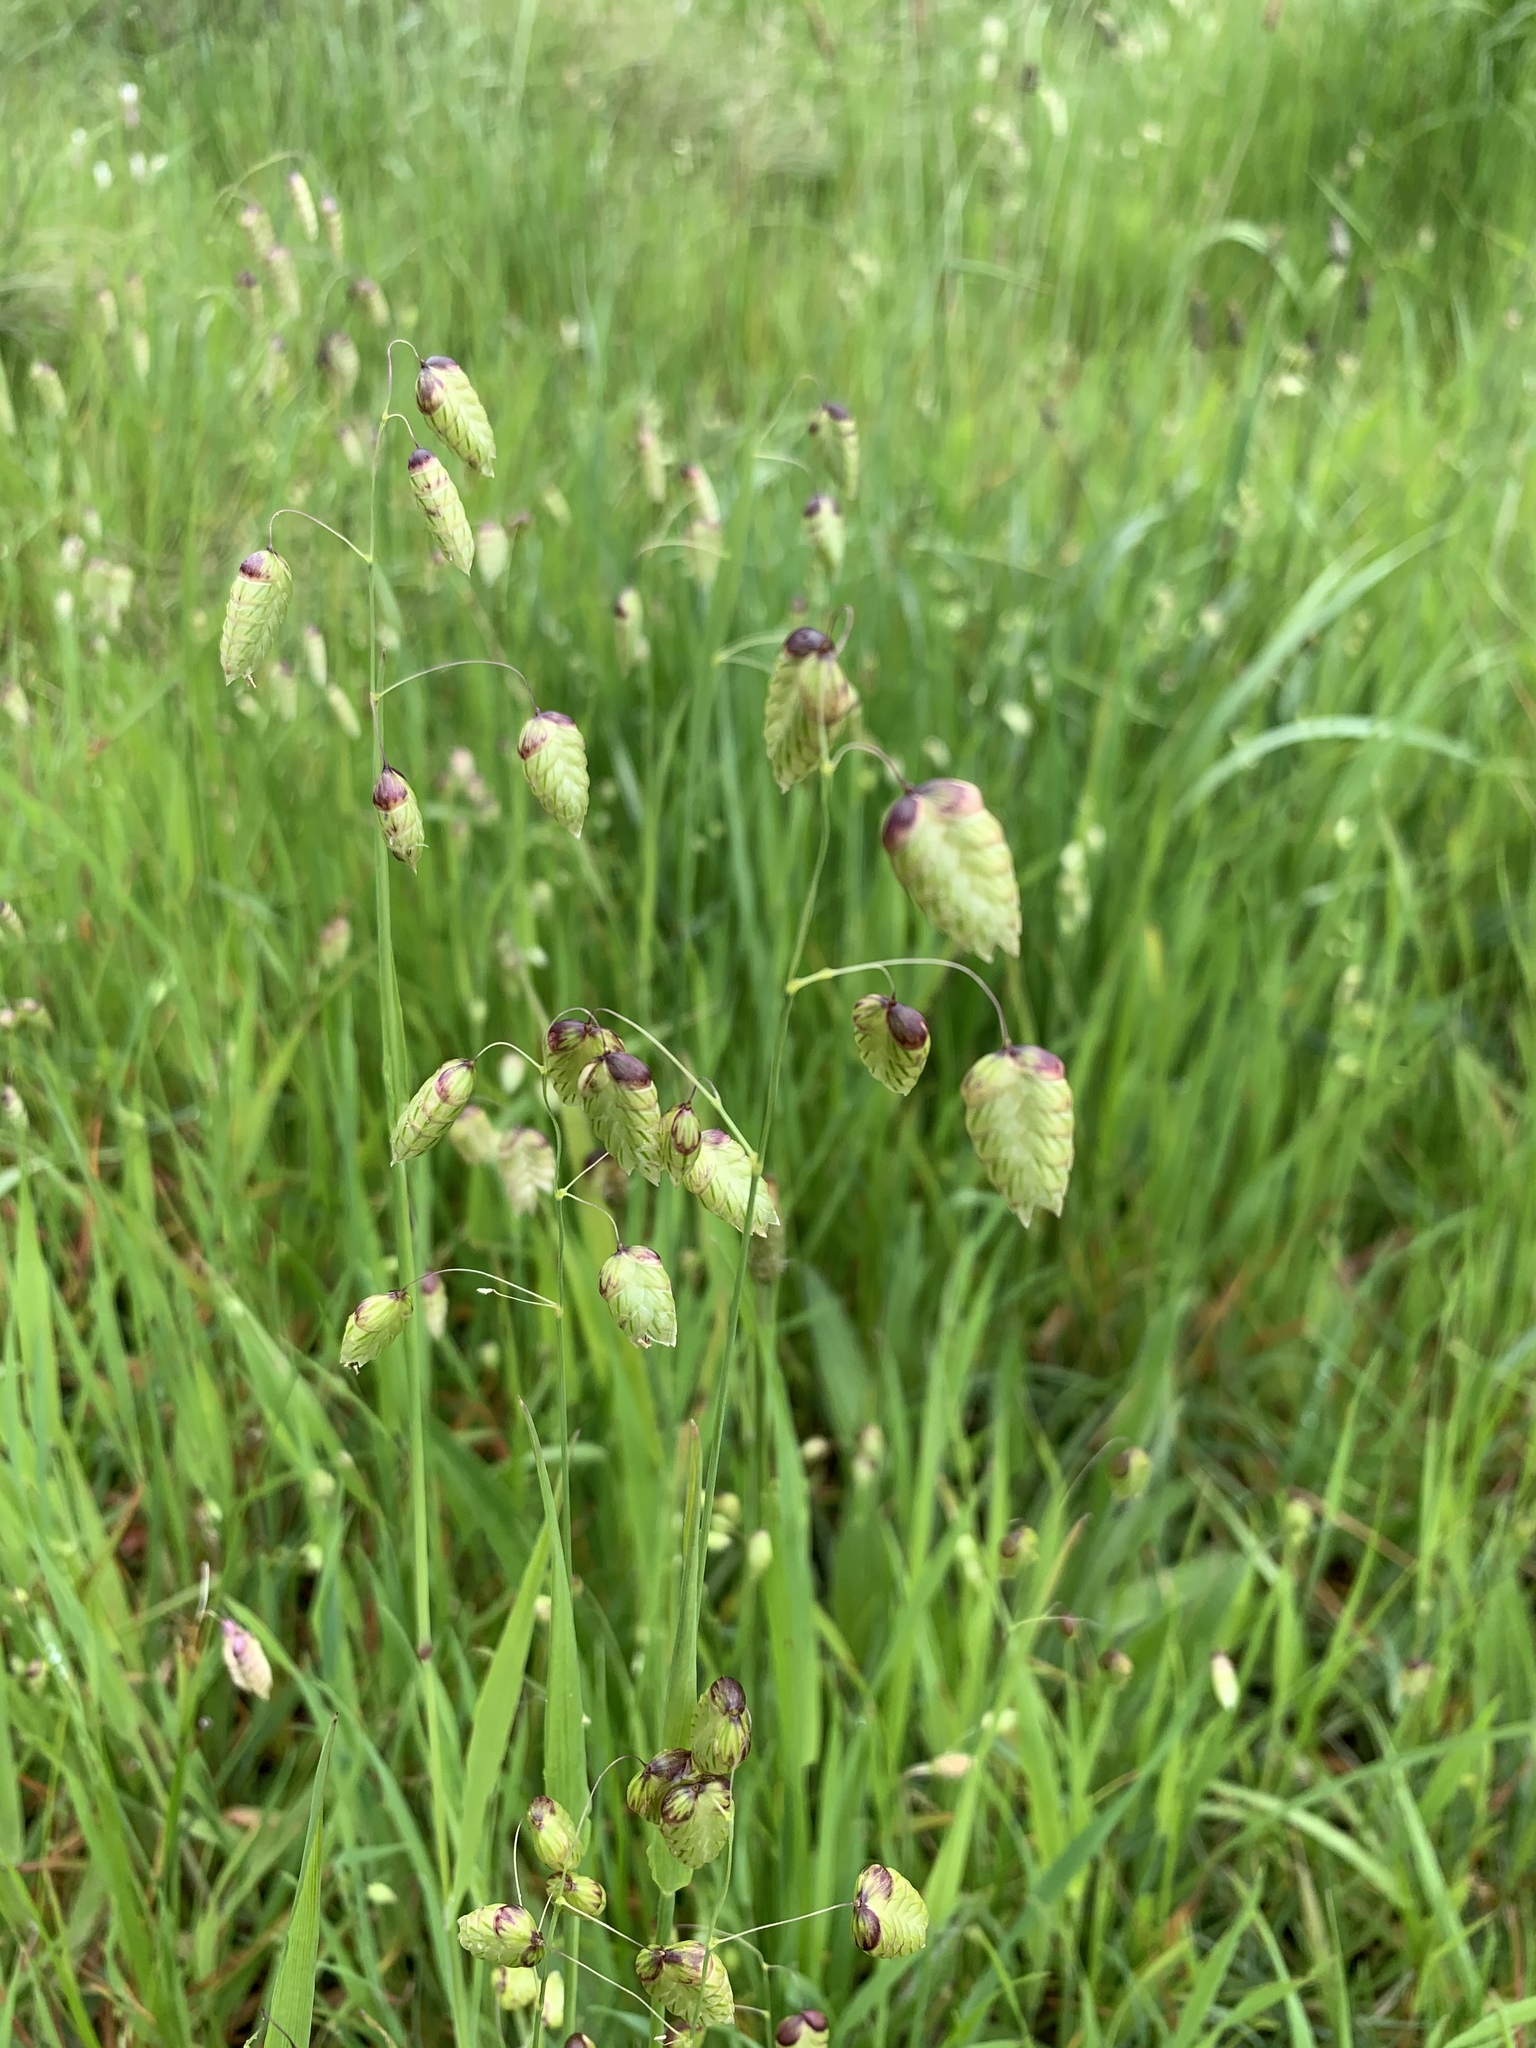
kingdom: Plantae
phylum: Tracheophyta
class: Liliopsida
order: Poales
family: Poaceae
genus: Briza
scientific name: Briza maxima
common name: Big quakinggrass
